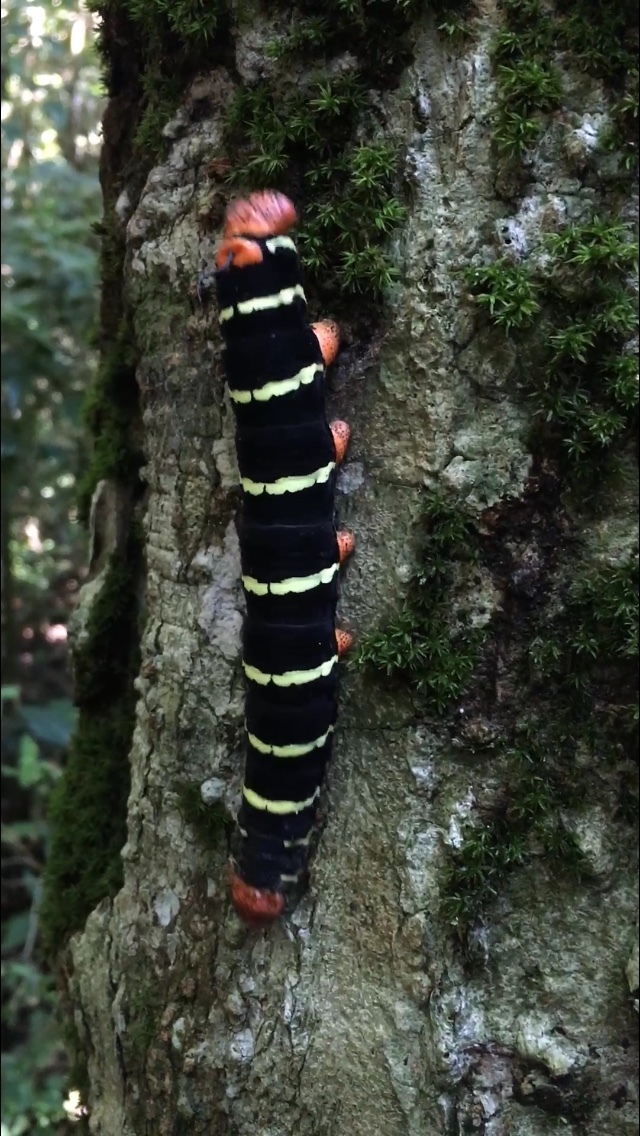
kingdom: Animalia
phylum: Arthropoda
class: Insecta
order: Lepidoptera
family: Sphingidae
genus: Pseudosphinx
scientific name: Pseudosphinx tetrio
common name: Tetrio sphinx
